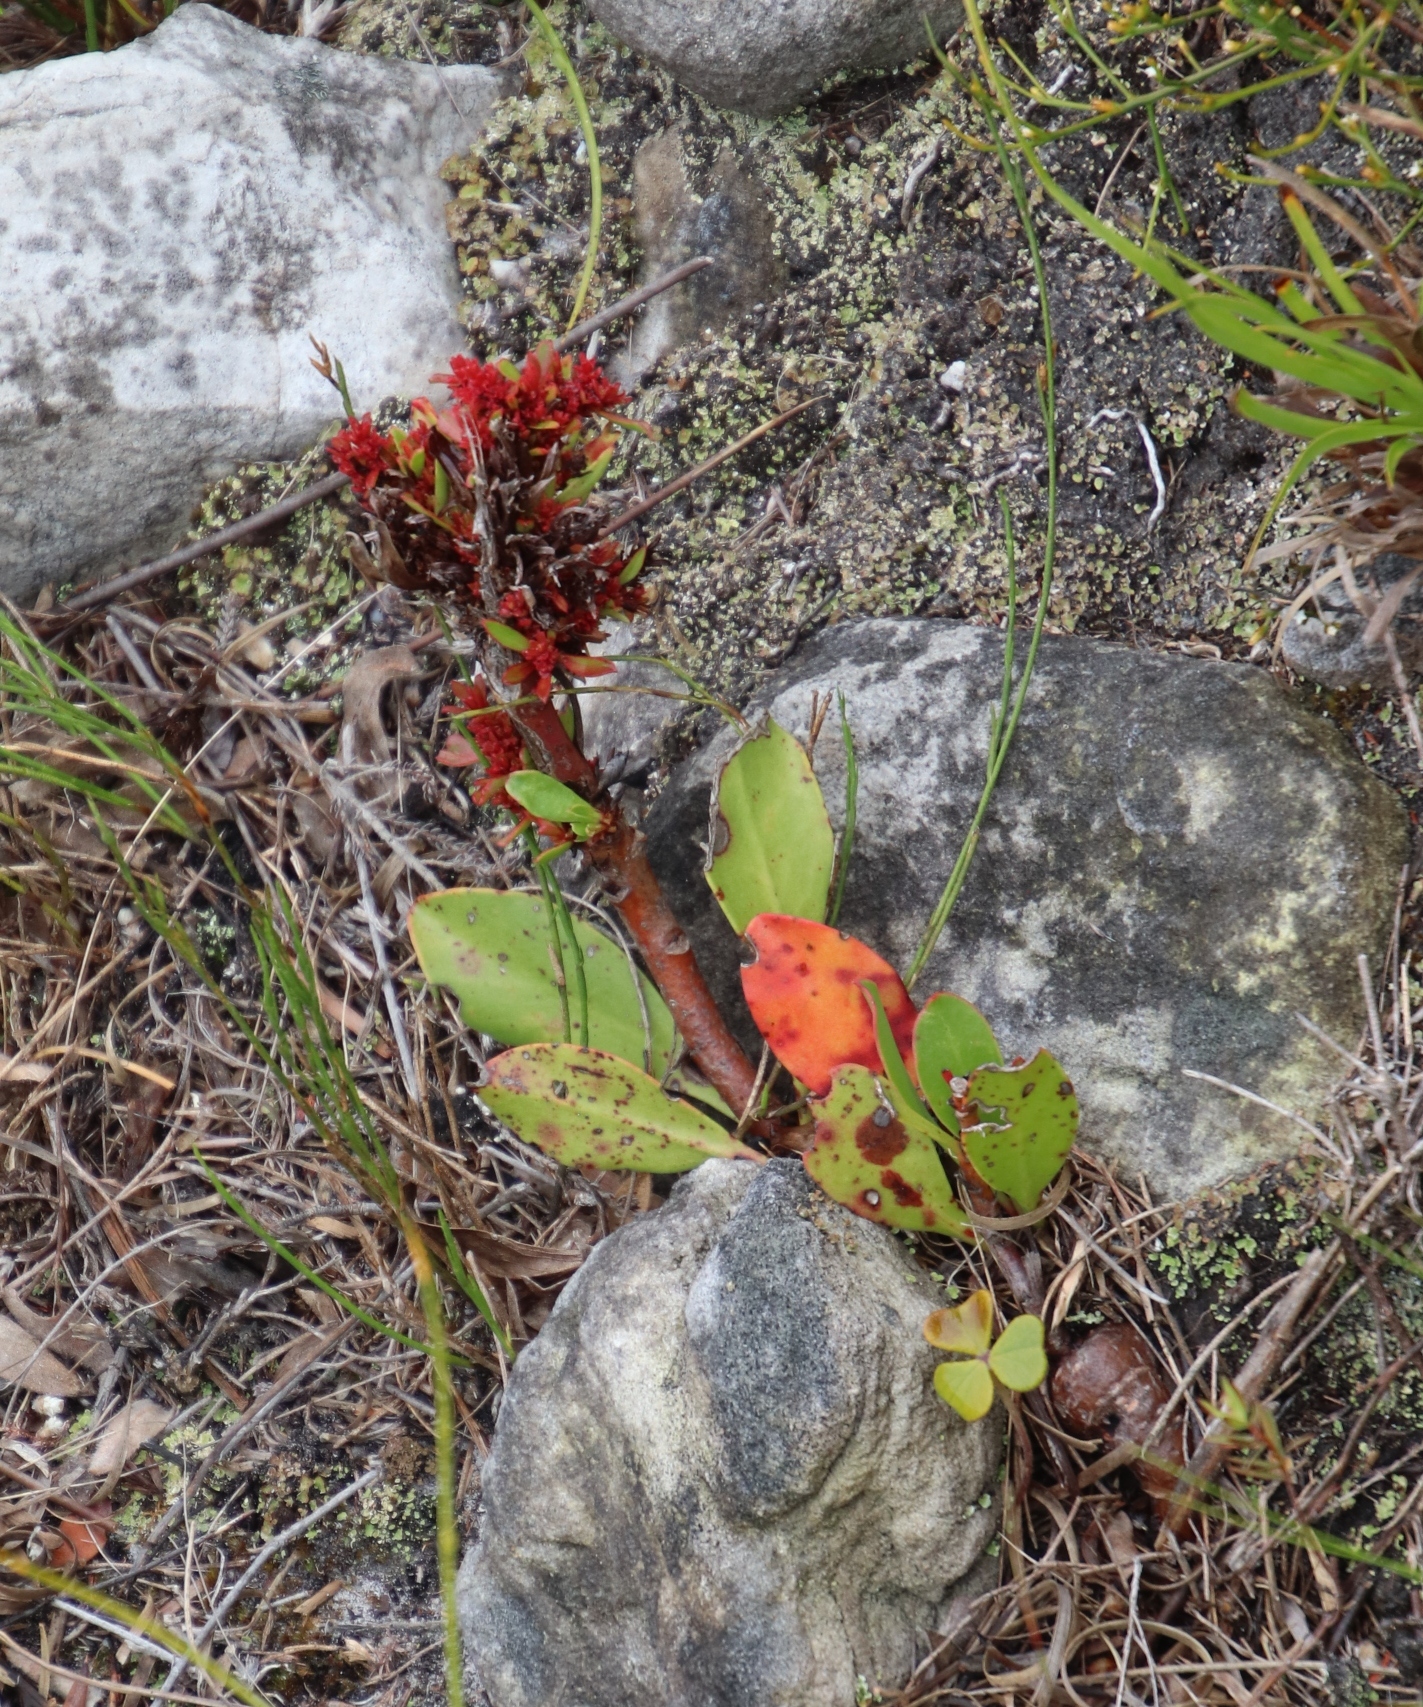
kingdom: Bacteria
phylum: Firmicutes
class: Bacilli
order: Acholeplasmatales
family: Acholeplasmataceae
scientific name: Acholeplasmataceae
